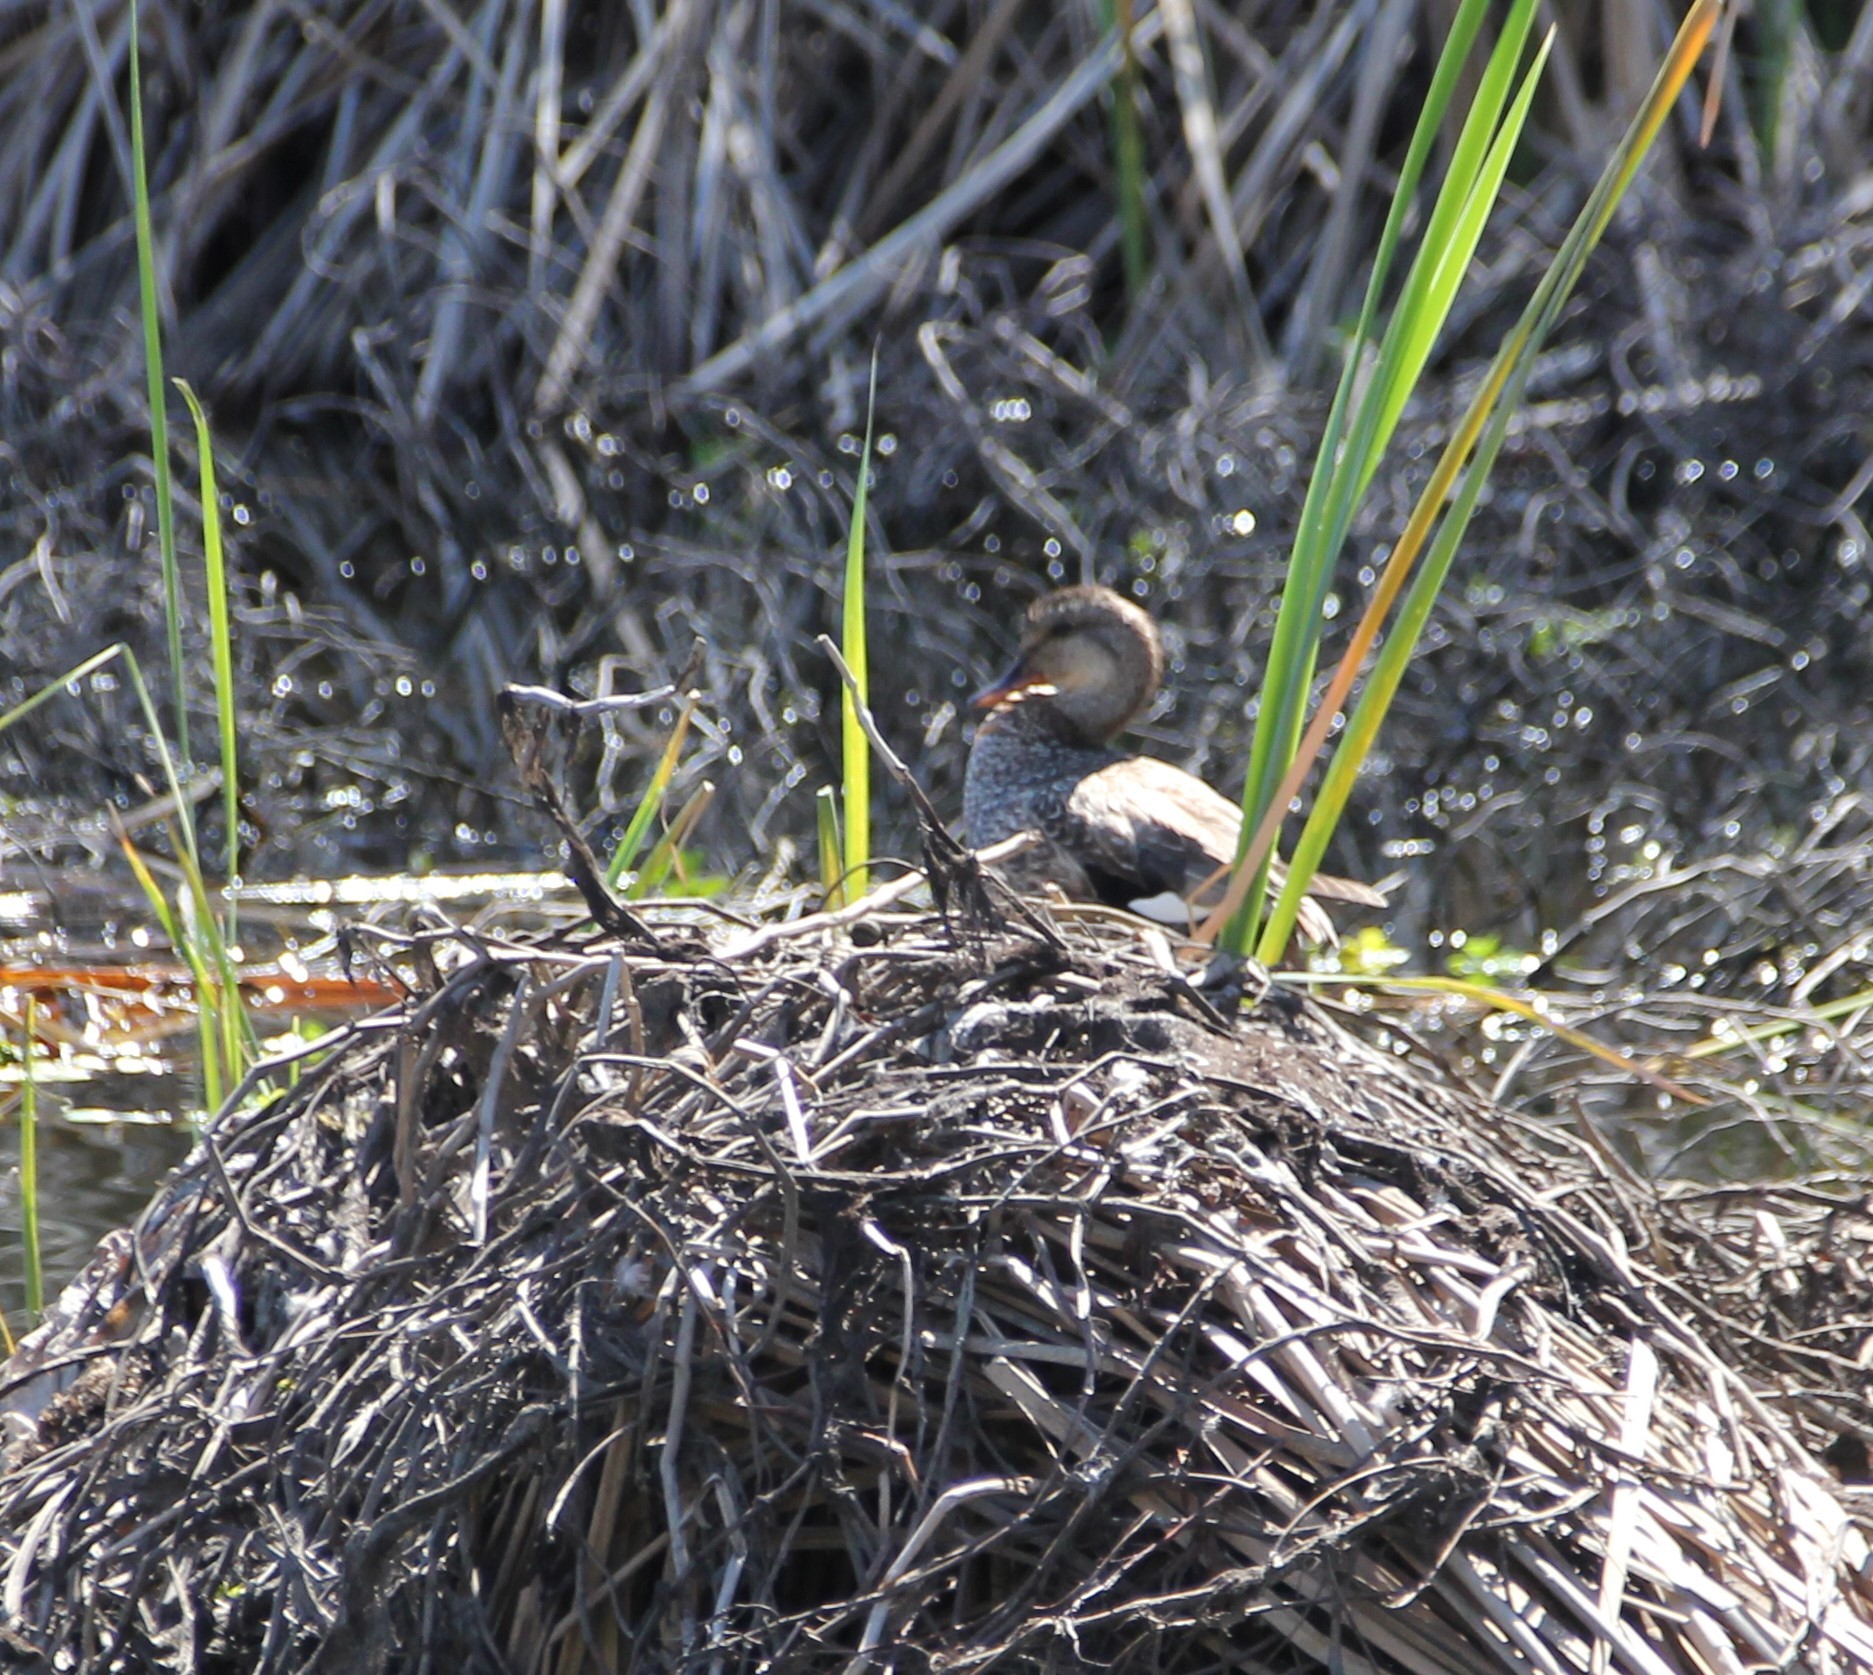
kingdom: Animalia
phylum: Chordata
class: Aves
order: Anseriformes
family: Anatidae
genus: Mareca
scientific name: Mareca strepera
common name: Gadwall
